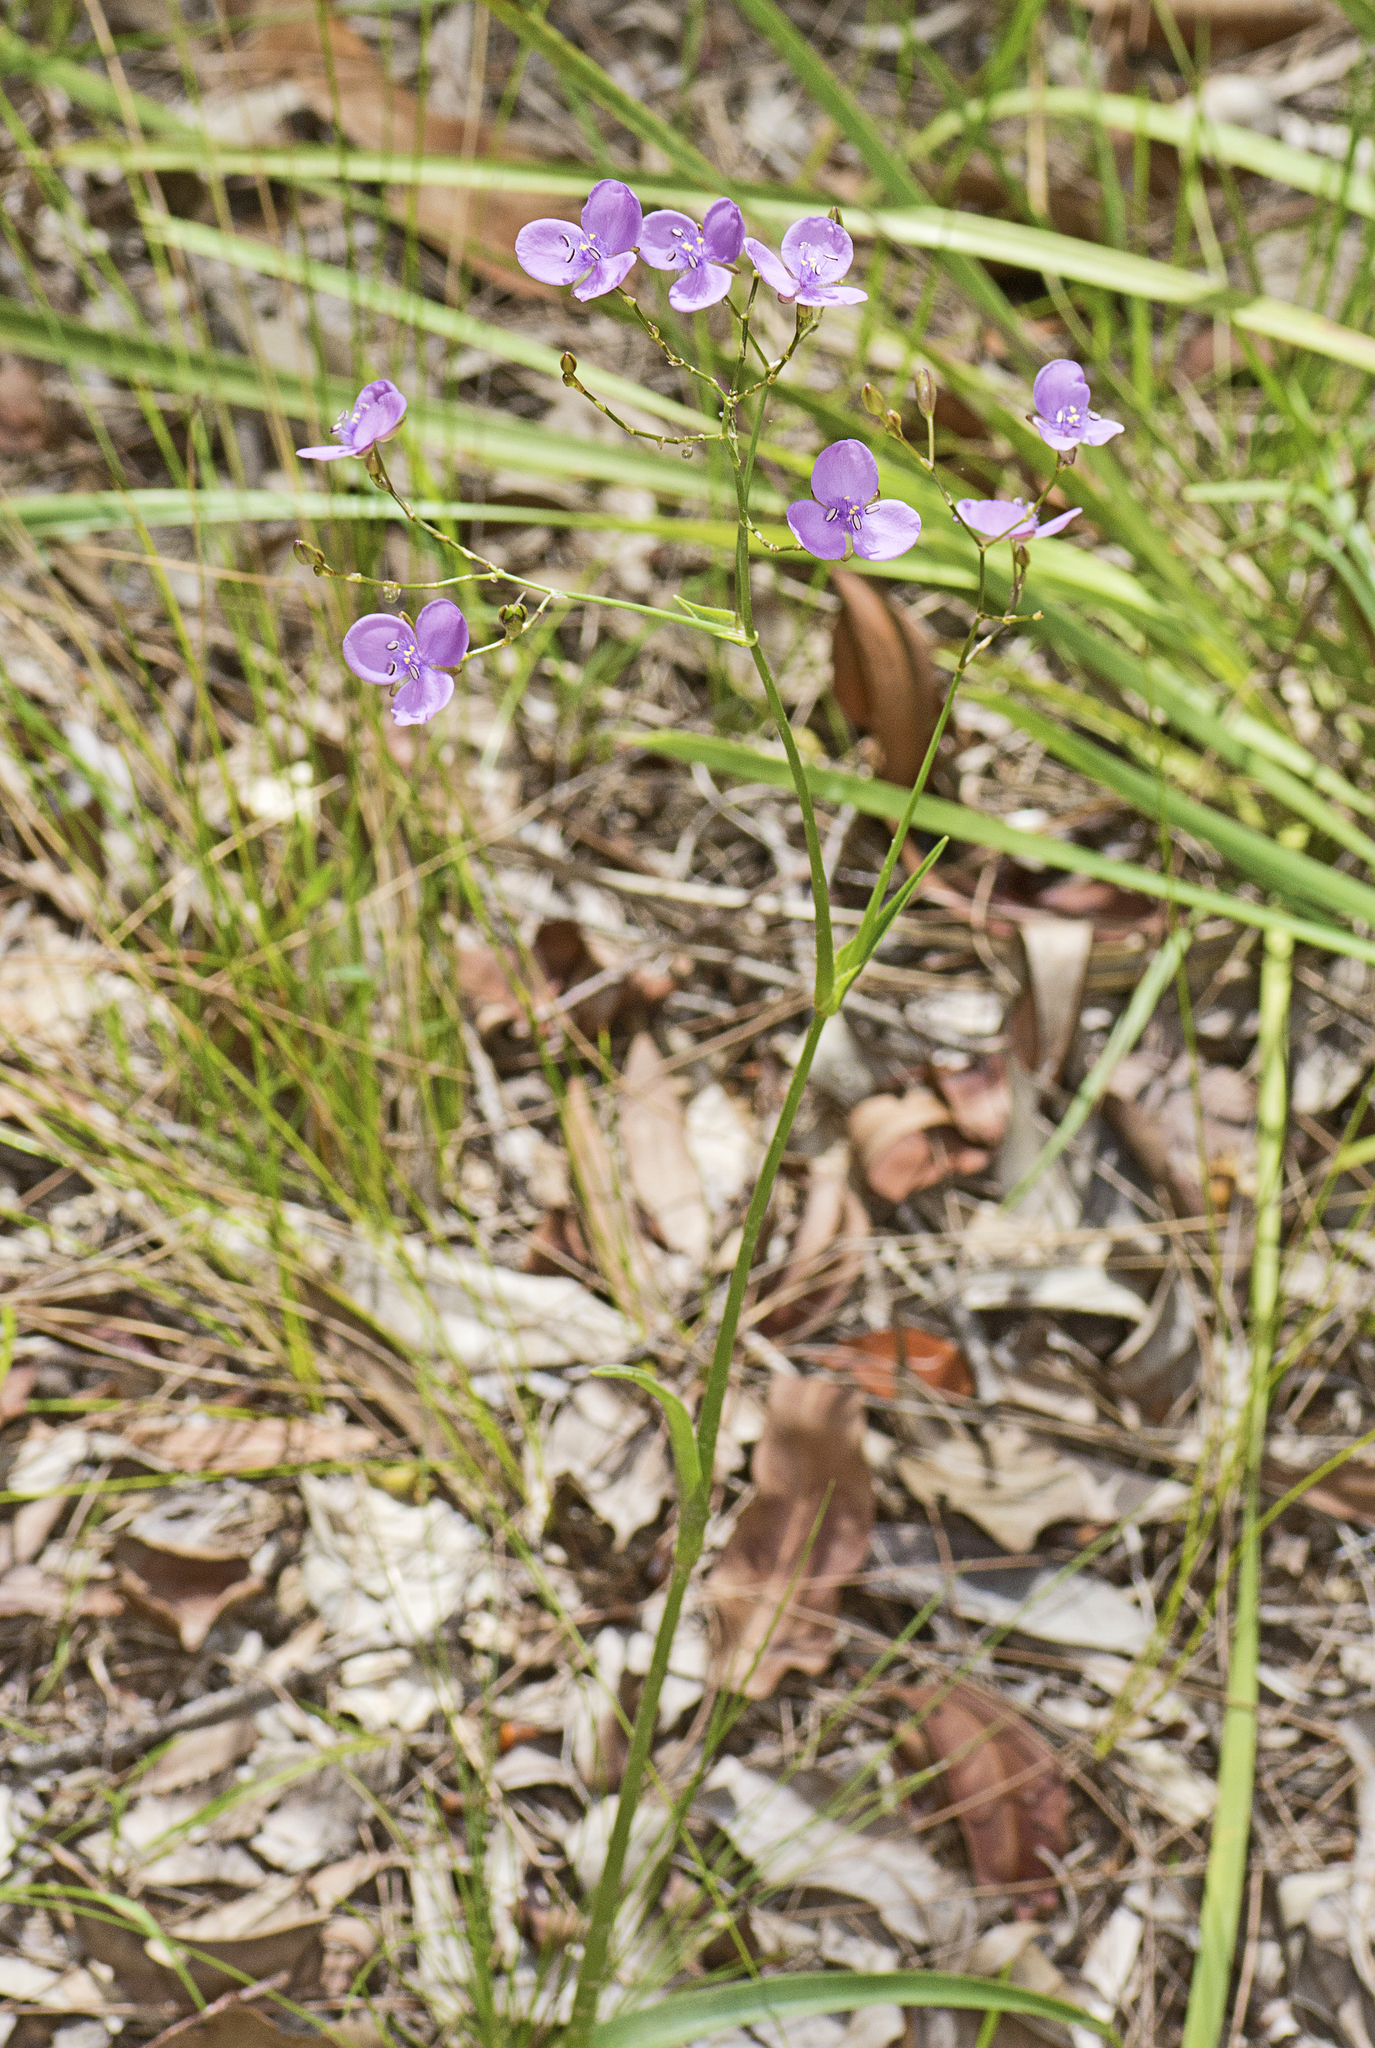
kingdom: Plantae
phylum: Tracheophyta
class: Liliopsida
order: Commelinales
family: Commelinaceae
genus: Murdannia
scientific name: Murdannia graminea
